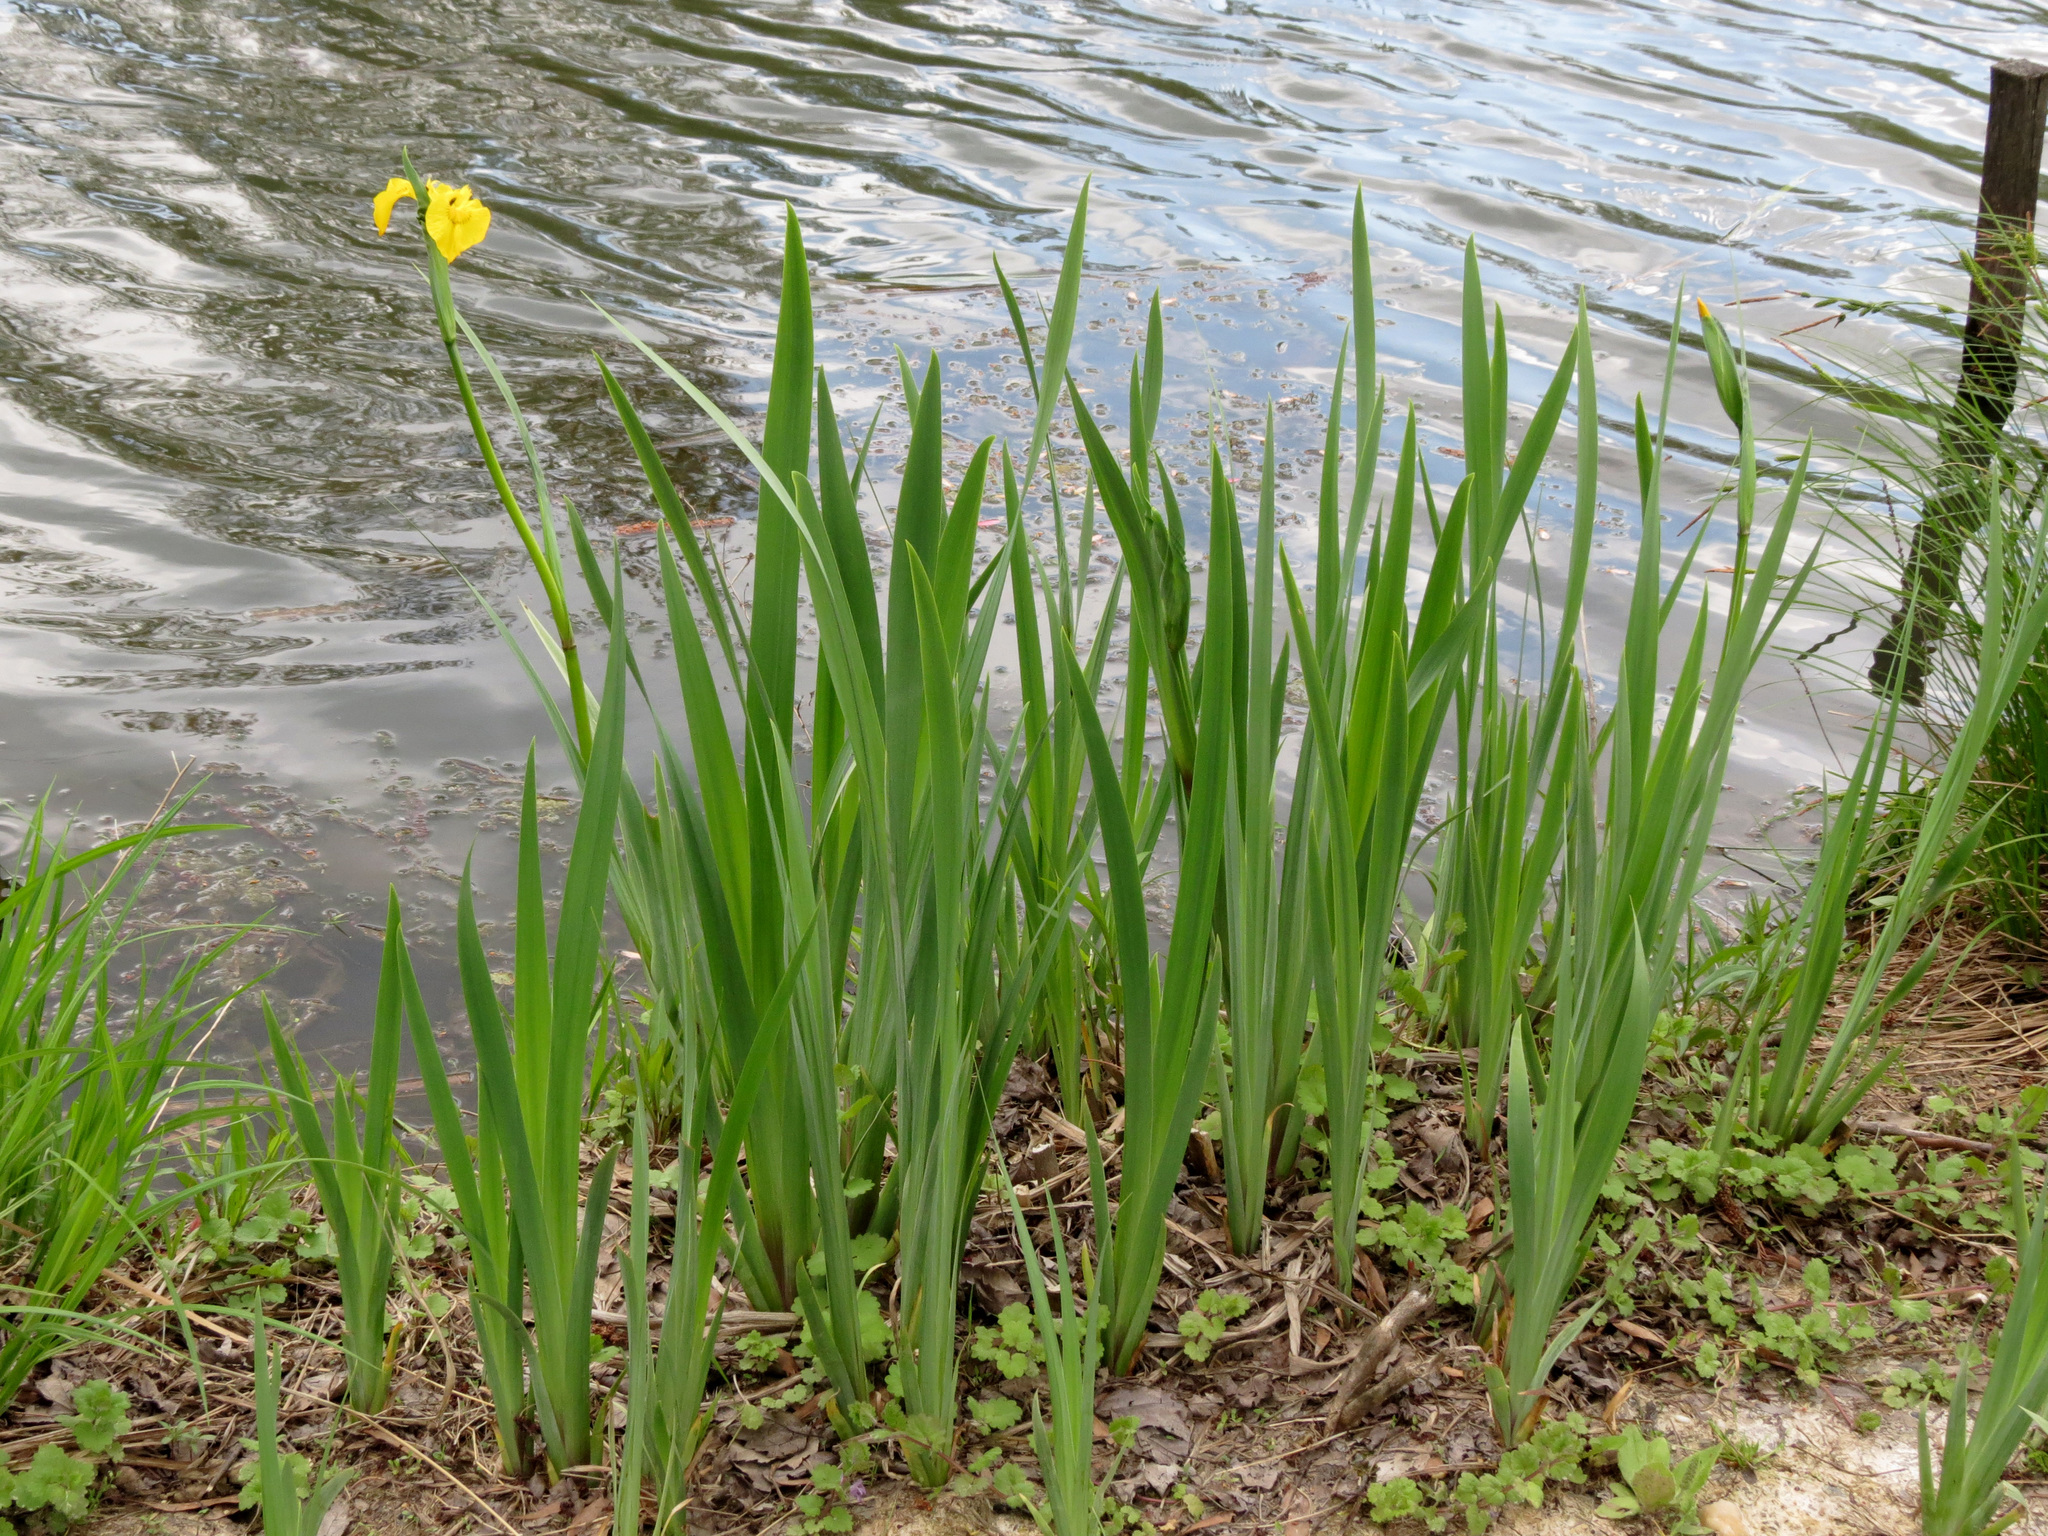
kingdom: Plantae
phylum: Tracheophyta
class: Liliopsida
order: Asparagales
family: Iridaceae
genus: Iris
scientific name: Iris pseudacorus
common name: Yellow flag
